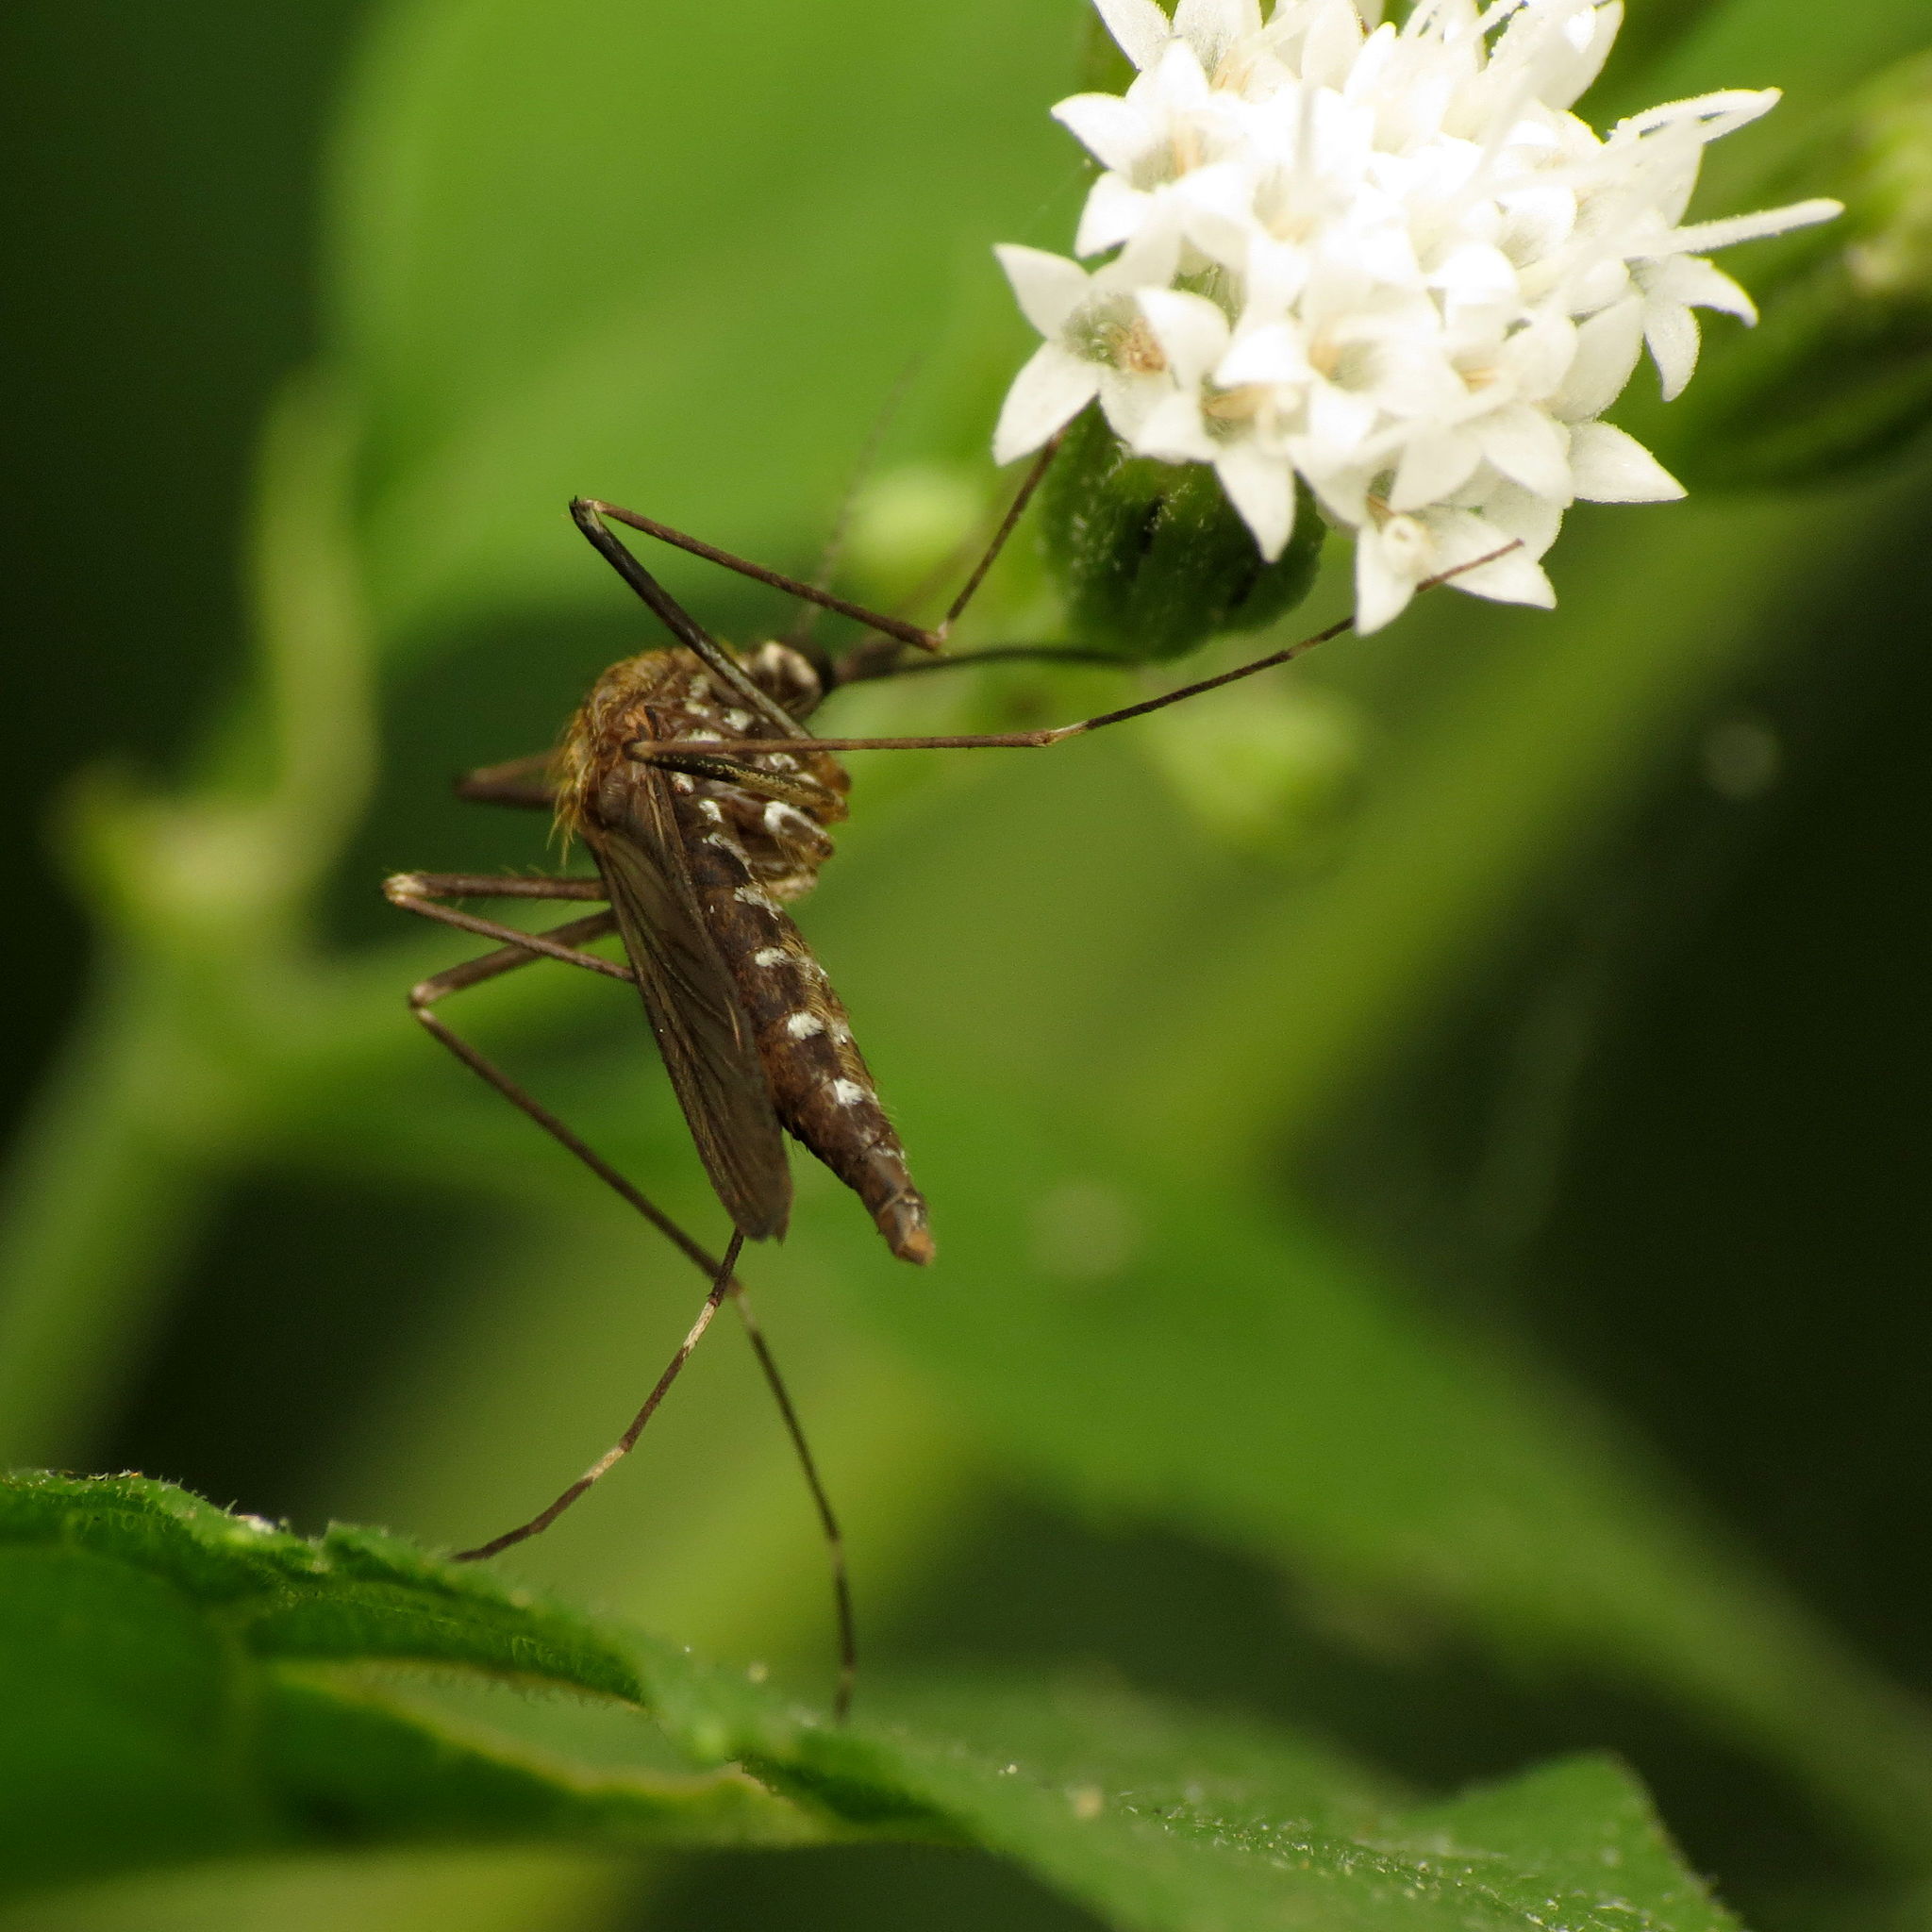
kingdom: Animalia
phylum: Arthropoda
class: Insecta
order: Diptera
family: Culicidae
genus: Aedes
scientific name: Aedes japonicus
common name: Asian bush mosquito
